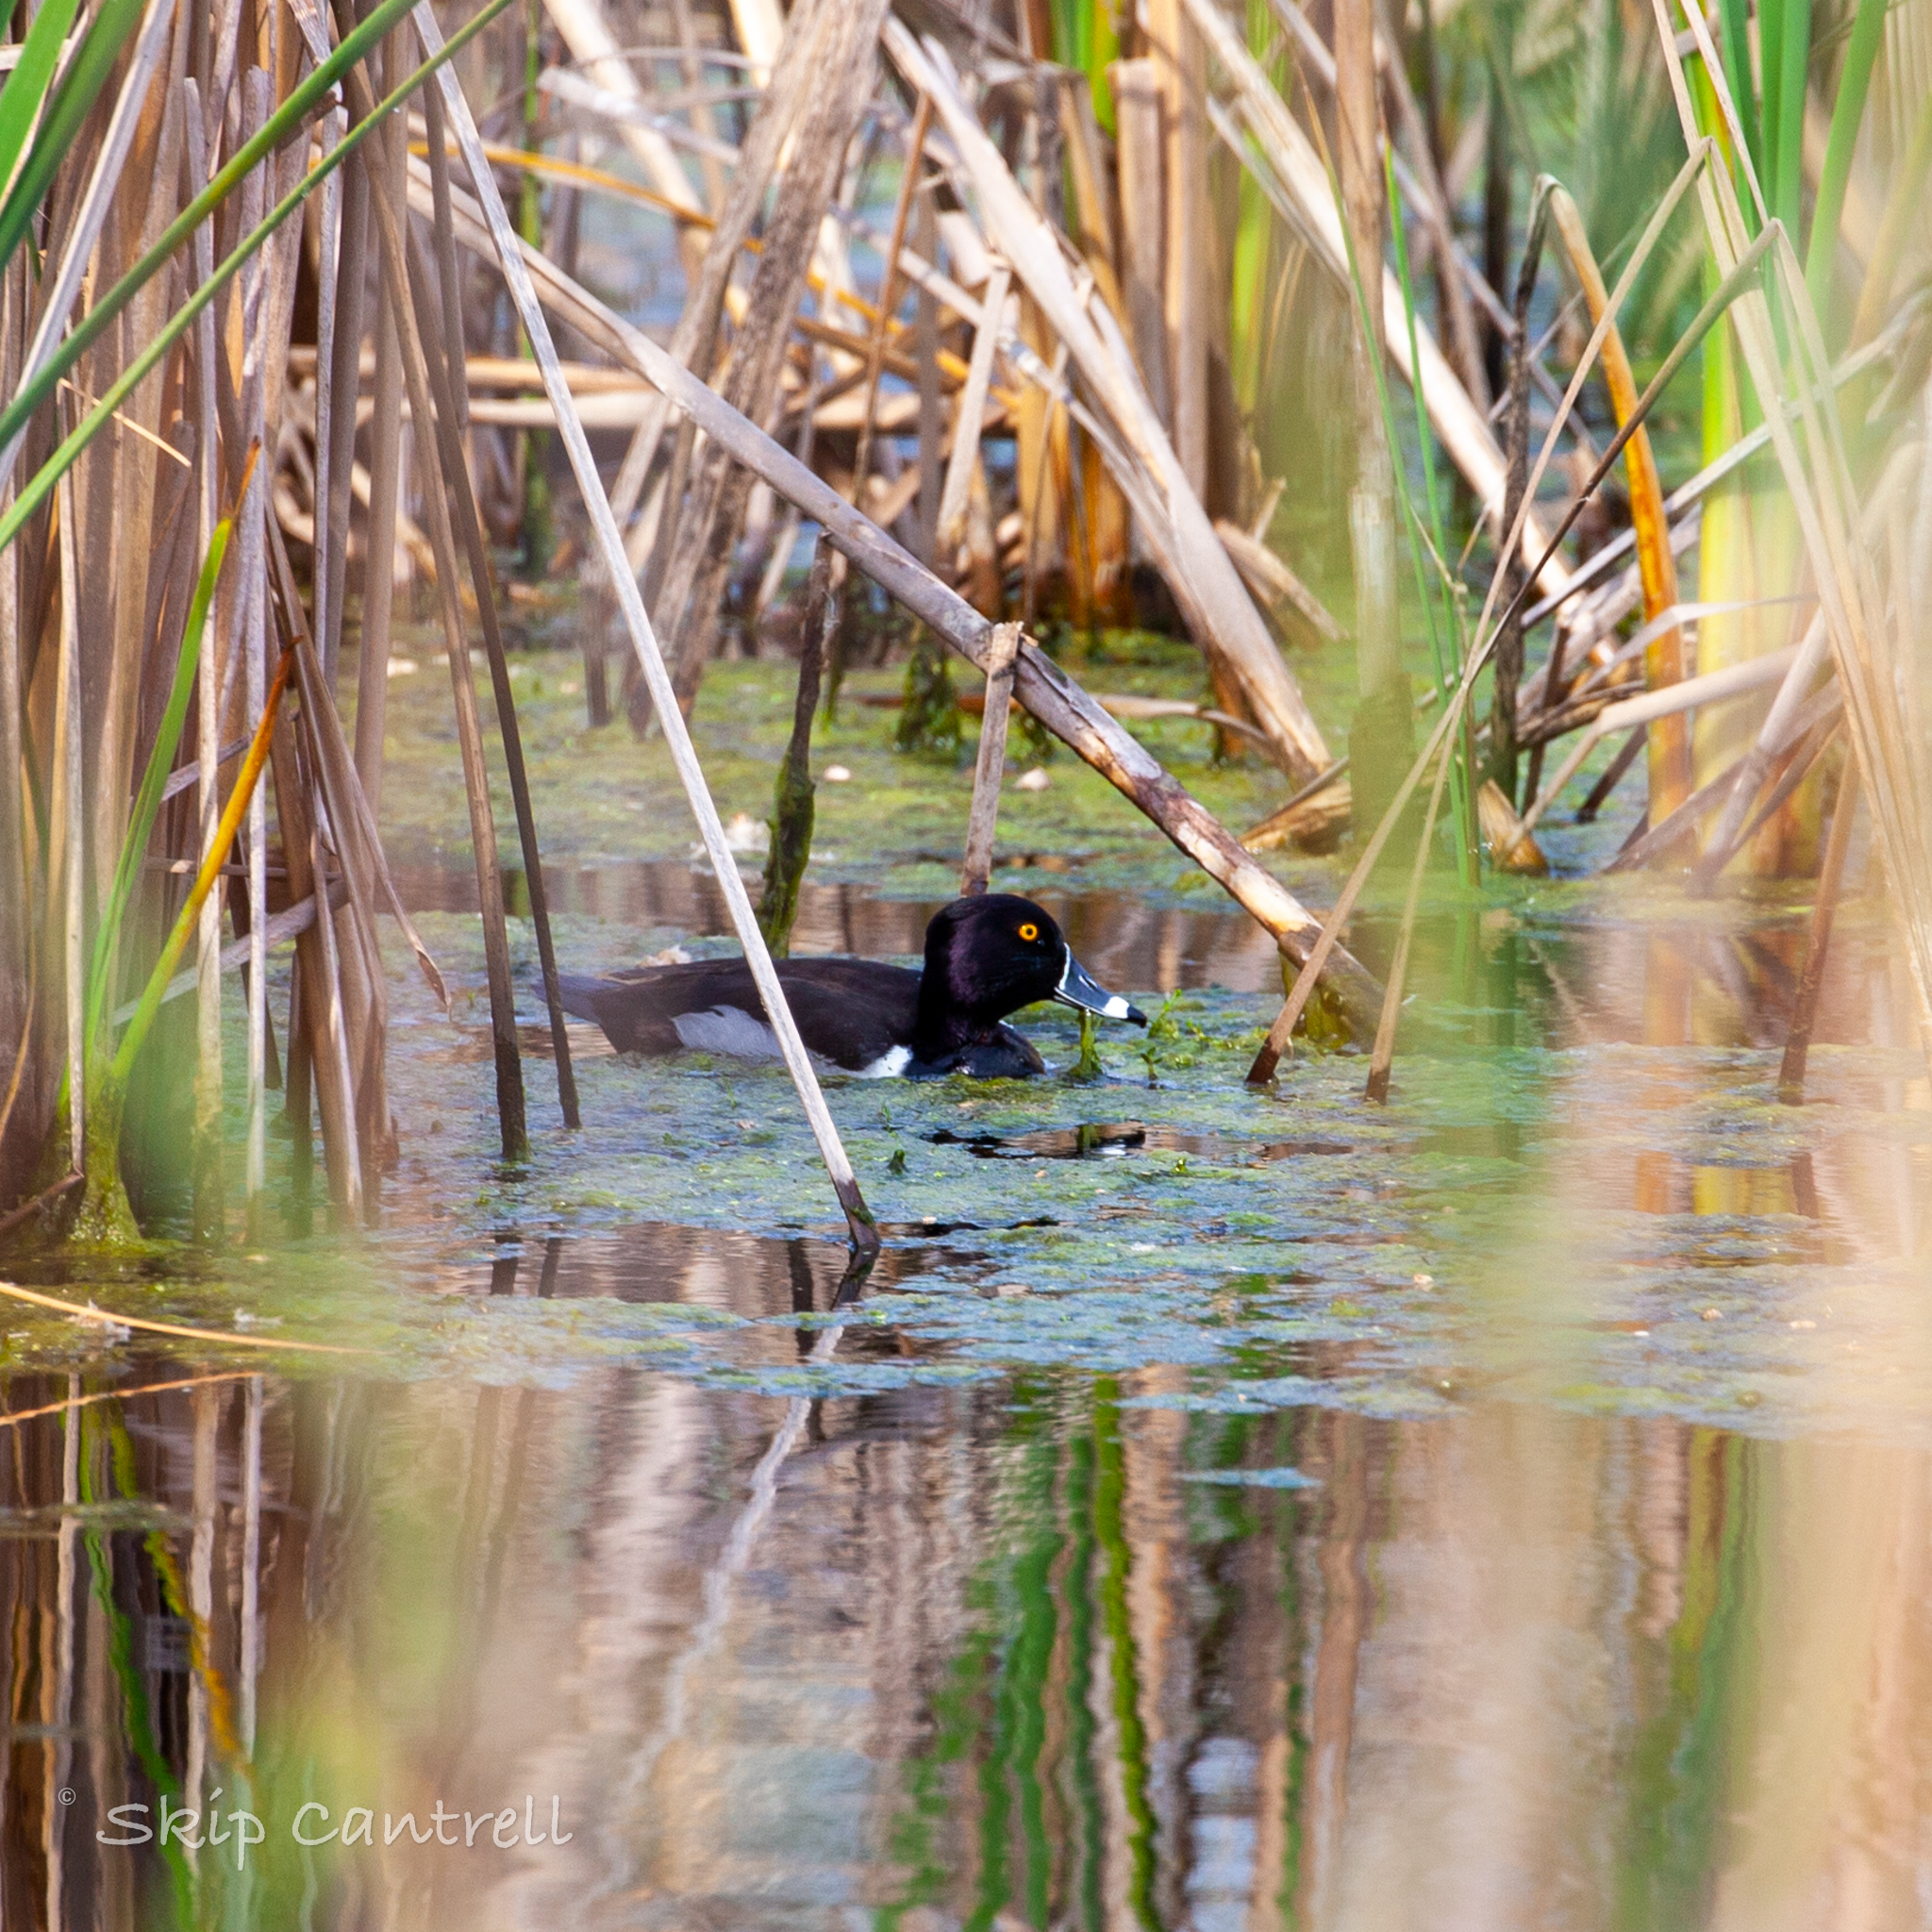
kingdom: Animalia
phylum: Chordata
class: Aves
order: Anseriformes
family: Anatidae
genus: Aythya
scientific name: Aythya collaris
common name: Ring-necked duck
